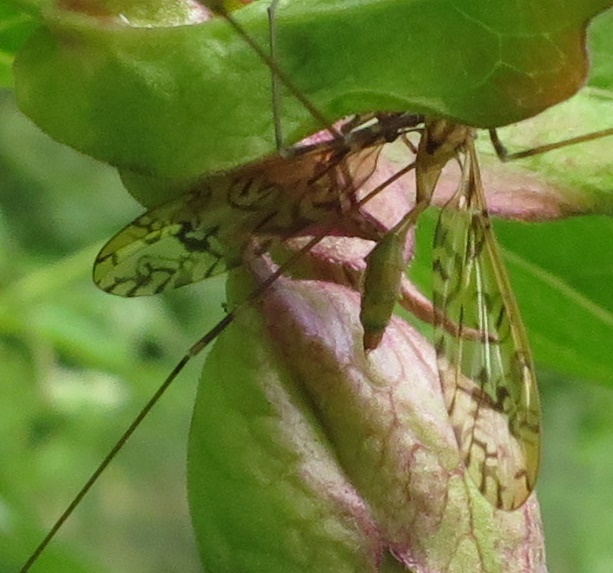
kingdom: Animalia
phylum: Arthropoda
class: Insecta
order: Diptera
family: Limoniidae
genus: Discobola
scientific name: Discobola tessellata
